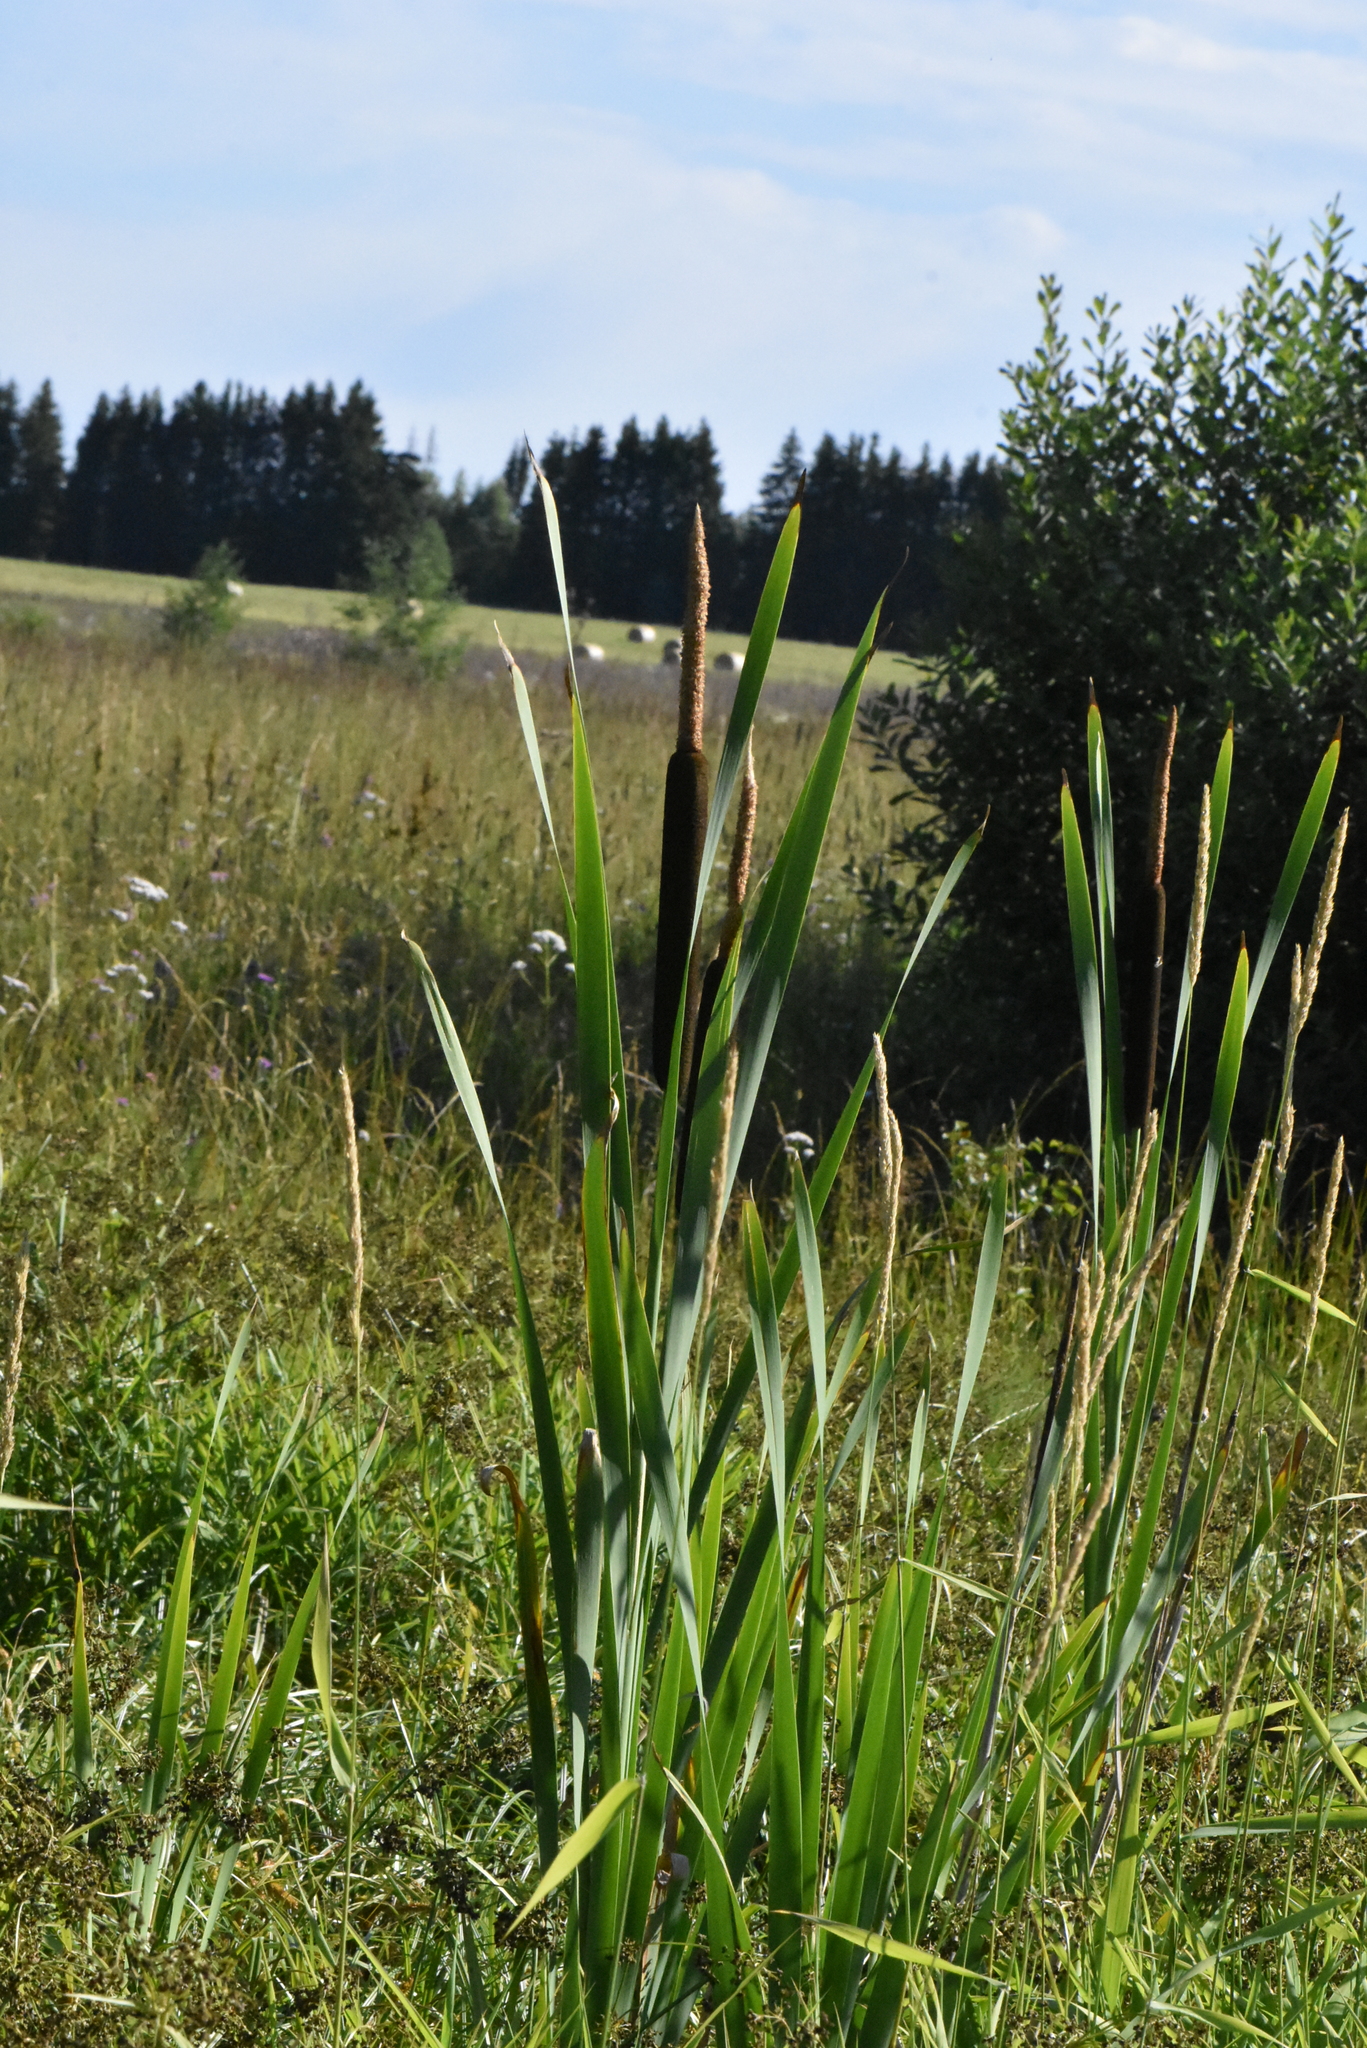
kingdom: Plantae
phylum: Tracheophyta
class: Liliopsida
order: Poales
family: Typhaceae
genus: Typha
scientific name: Typha latifolia
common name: Broadleaf cattail
